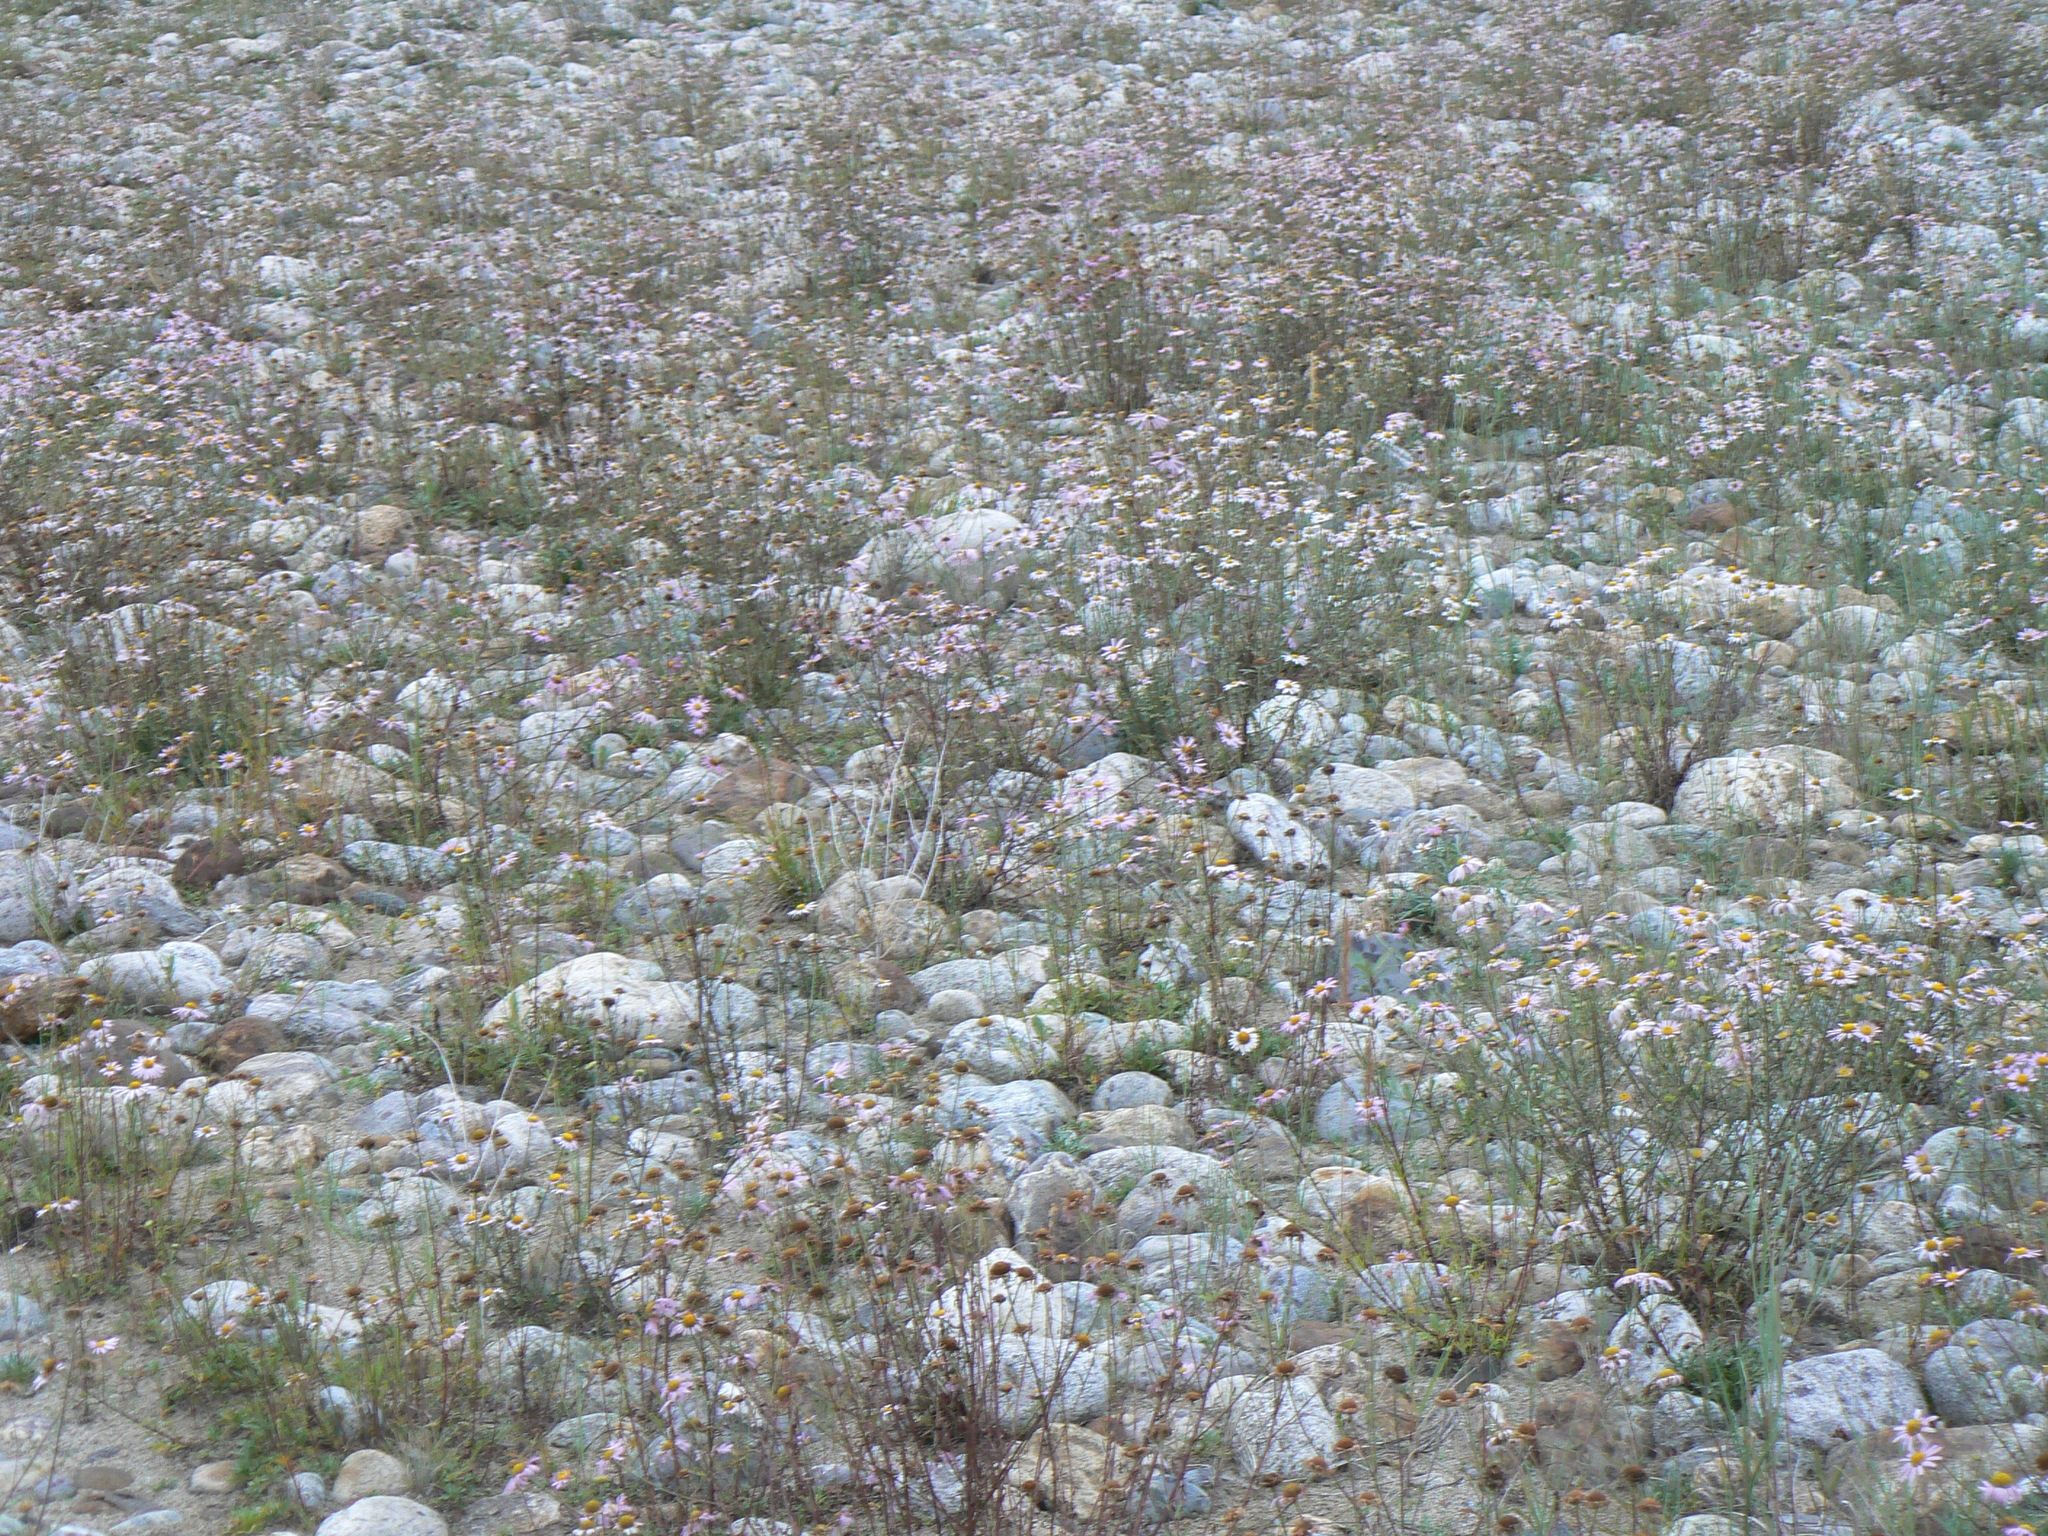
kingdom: Plantae
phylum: Tracheophyta
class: Magnoliopsida
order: Asterales
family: Asteraceae
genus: Chrysanthemum
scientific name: Chrysanthemum zawadzkii
